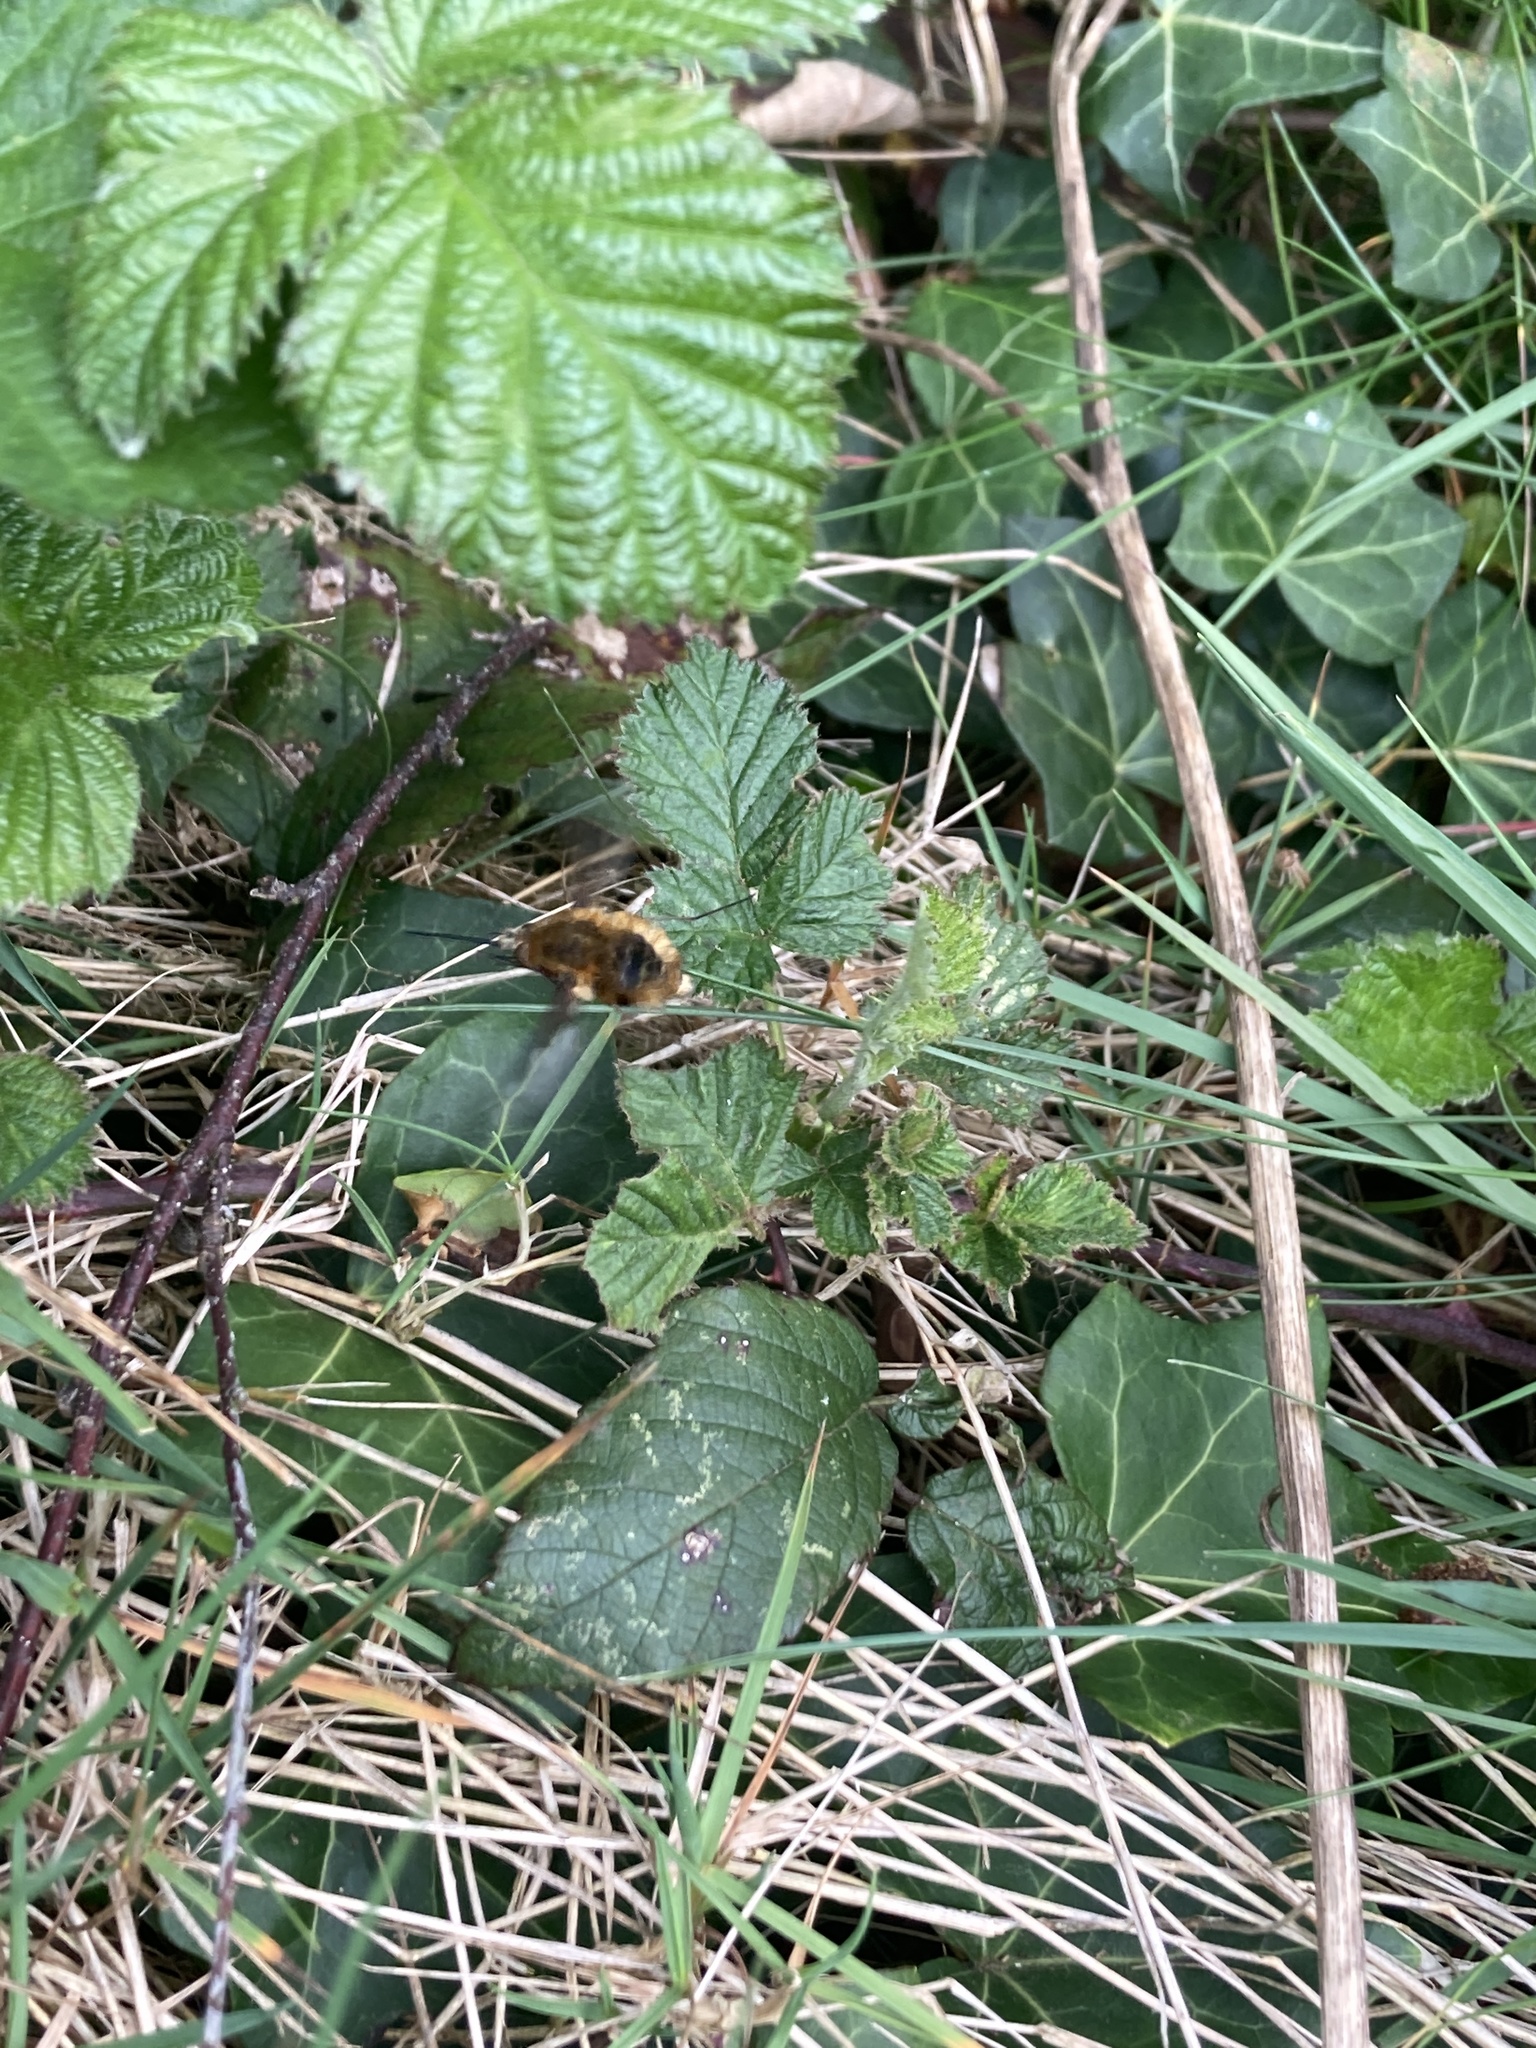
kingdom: Animalia
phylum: Arthropoda
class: Insecta
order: Diptera
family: Bombyliidae
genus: Bombylius
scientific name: Bombylius major
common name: Bee fly
